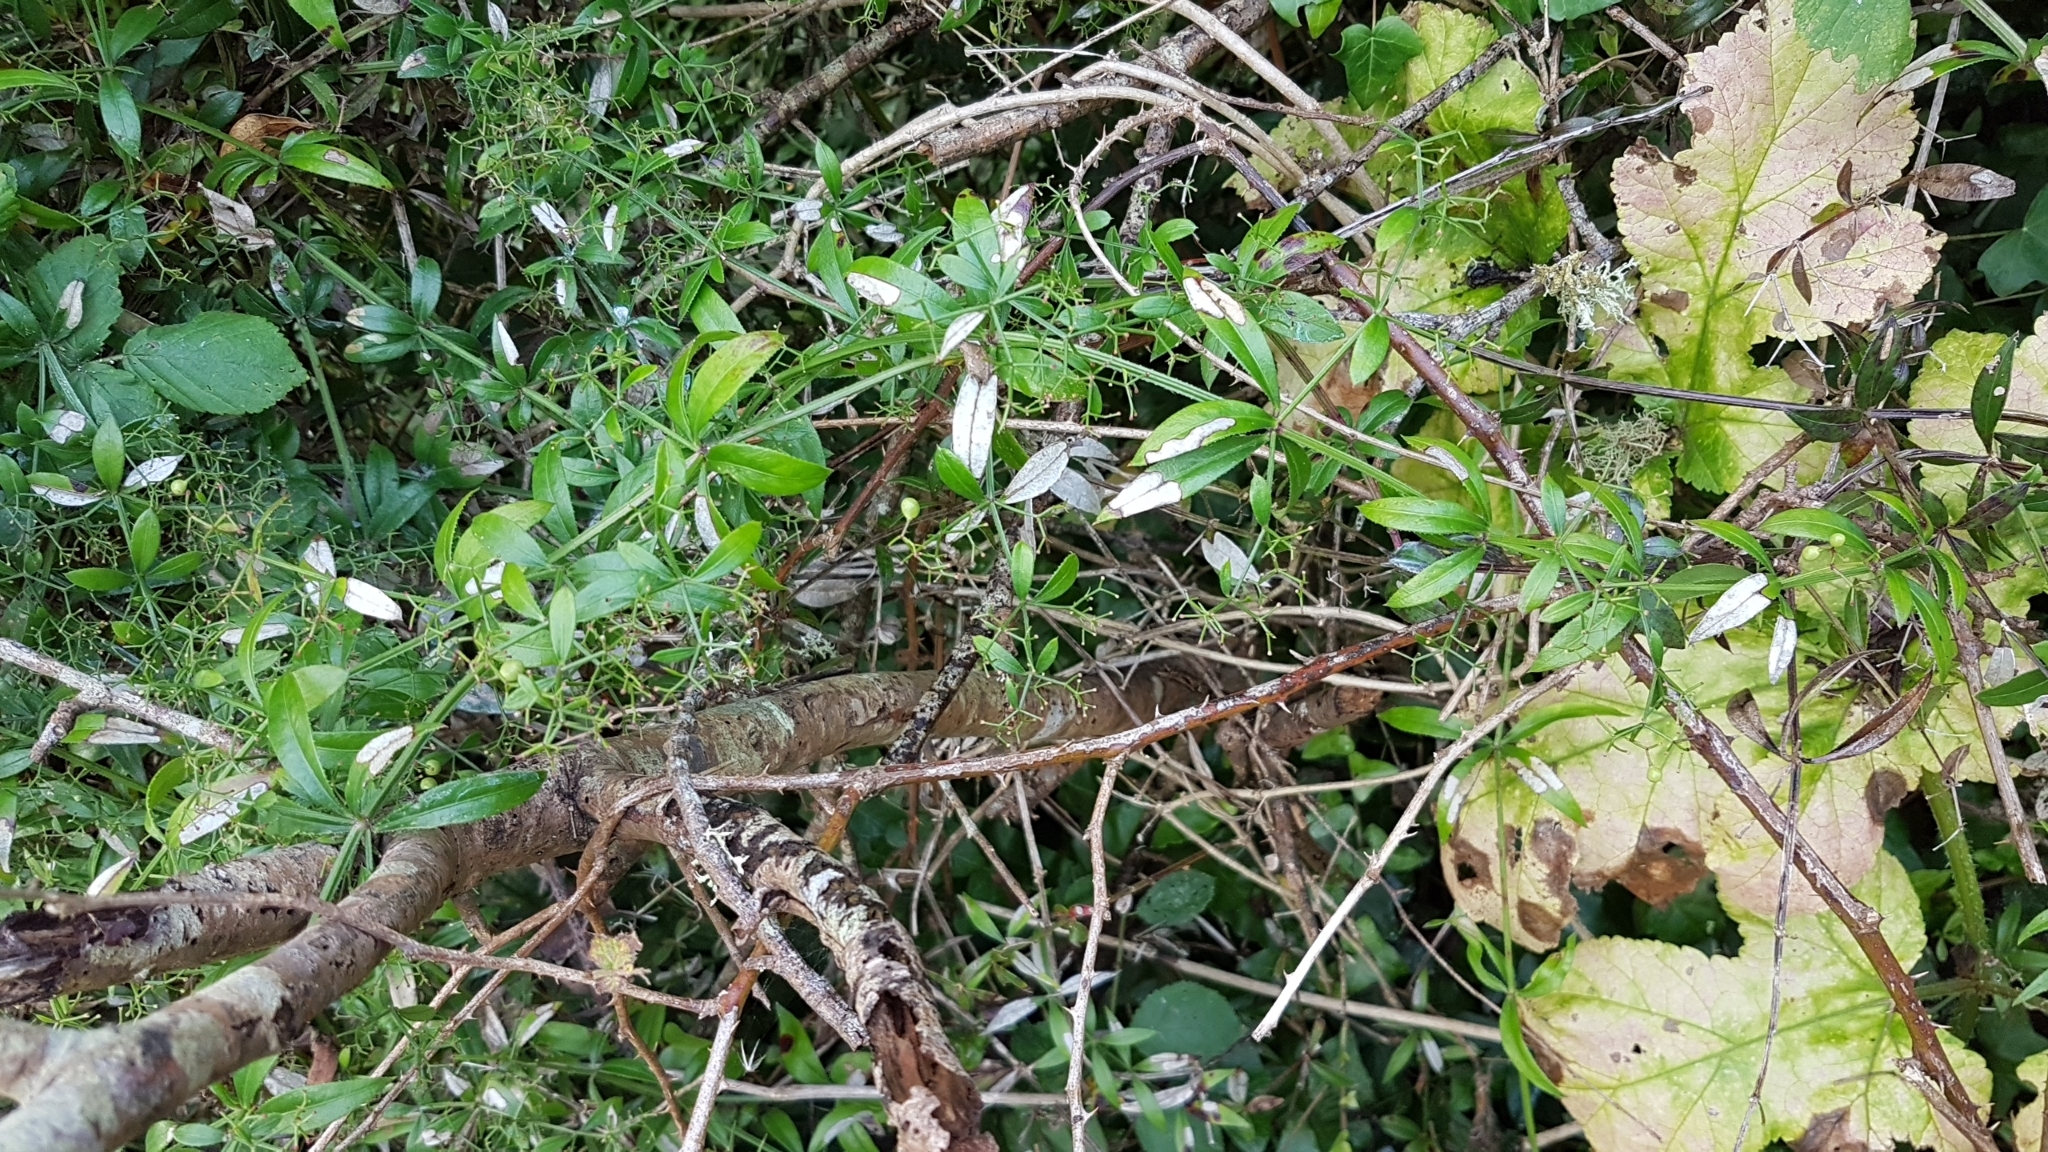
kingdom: Plantae
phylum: Tracheophyta
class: Magnoliopsida
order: Gentianales
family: Rubiaceae
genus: Rubia
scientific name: Rubia peregrina
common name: Wild madder
